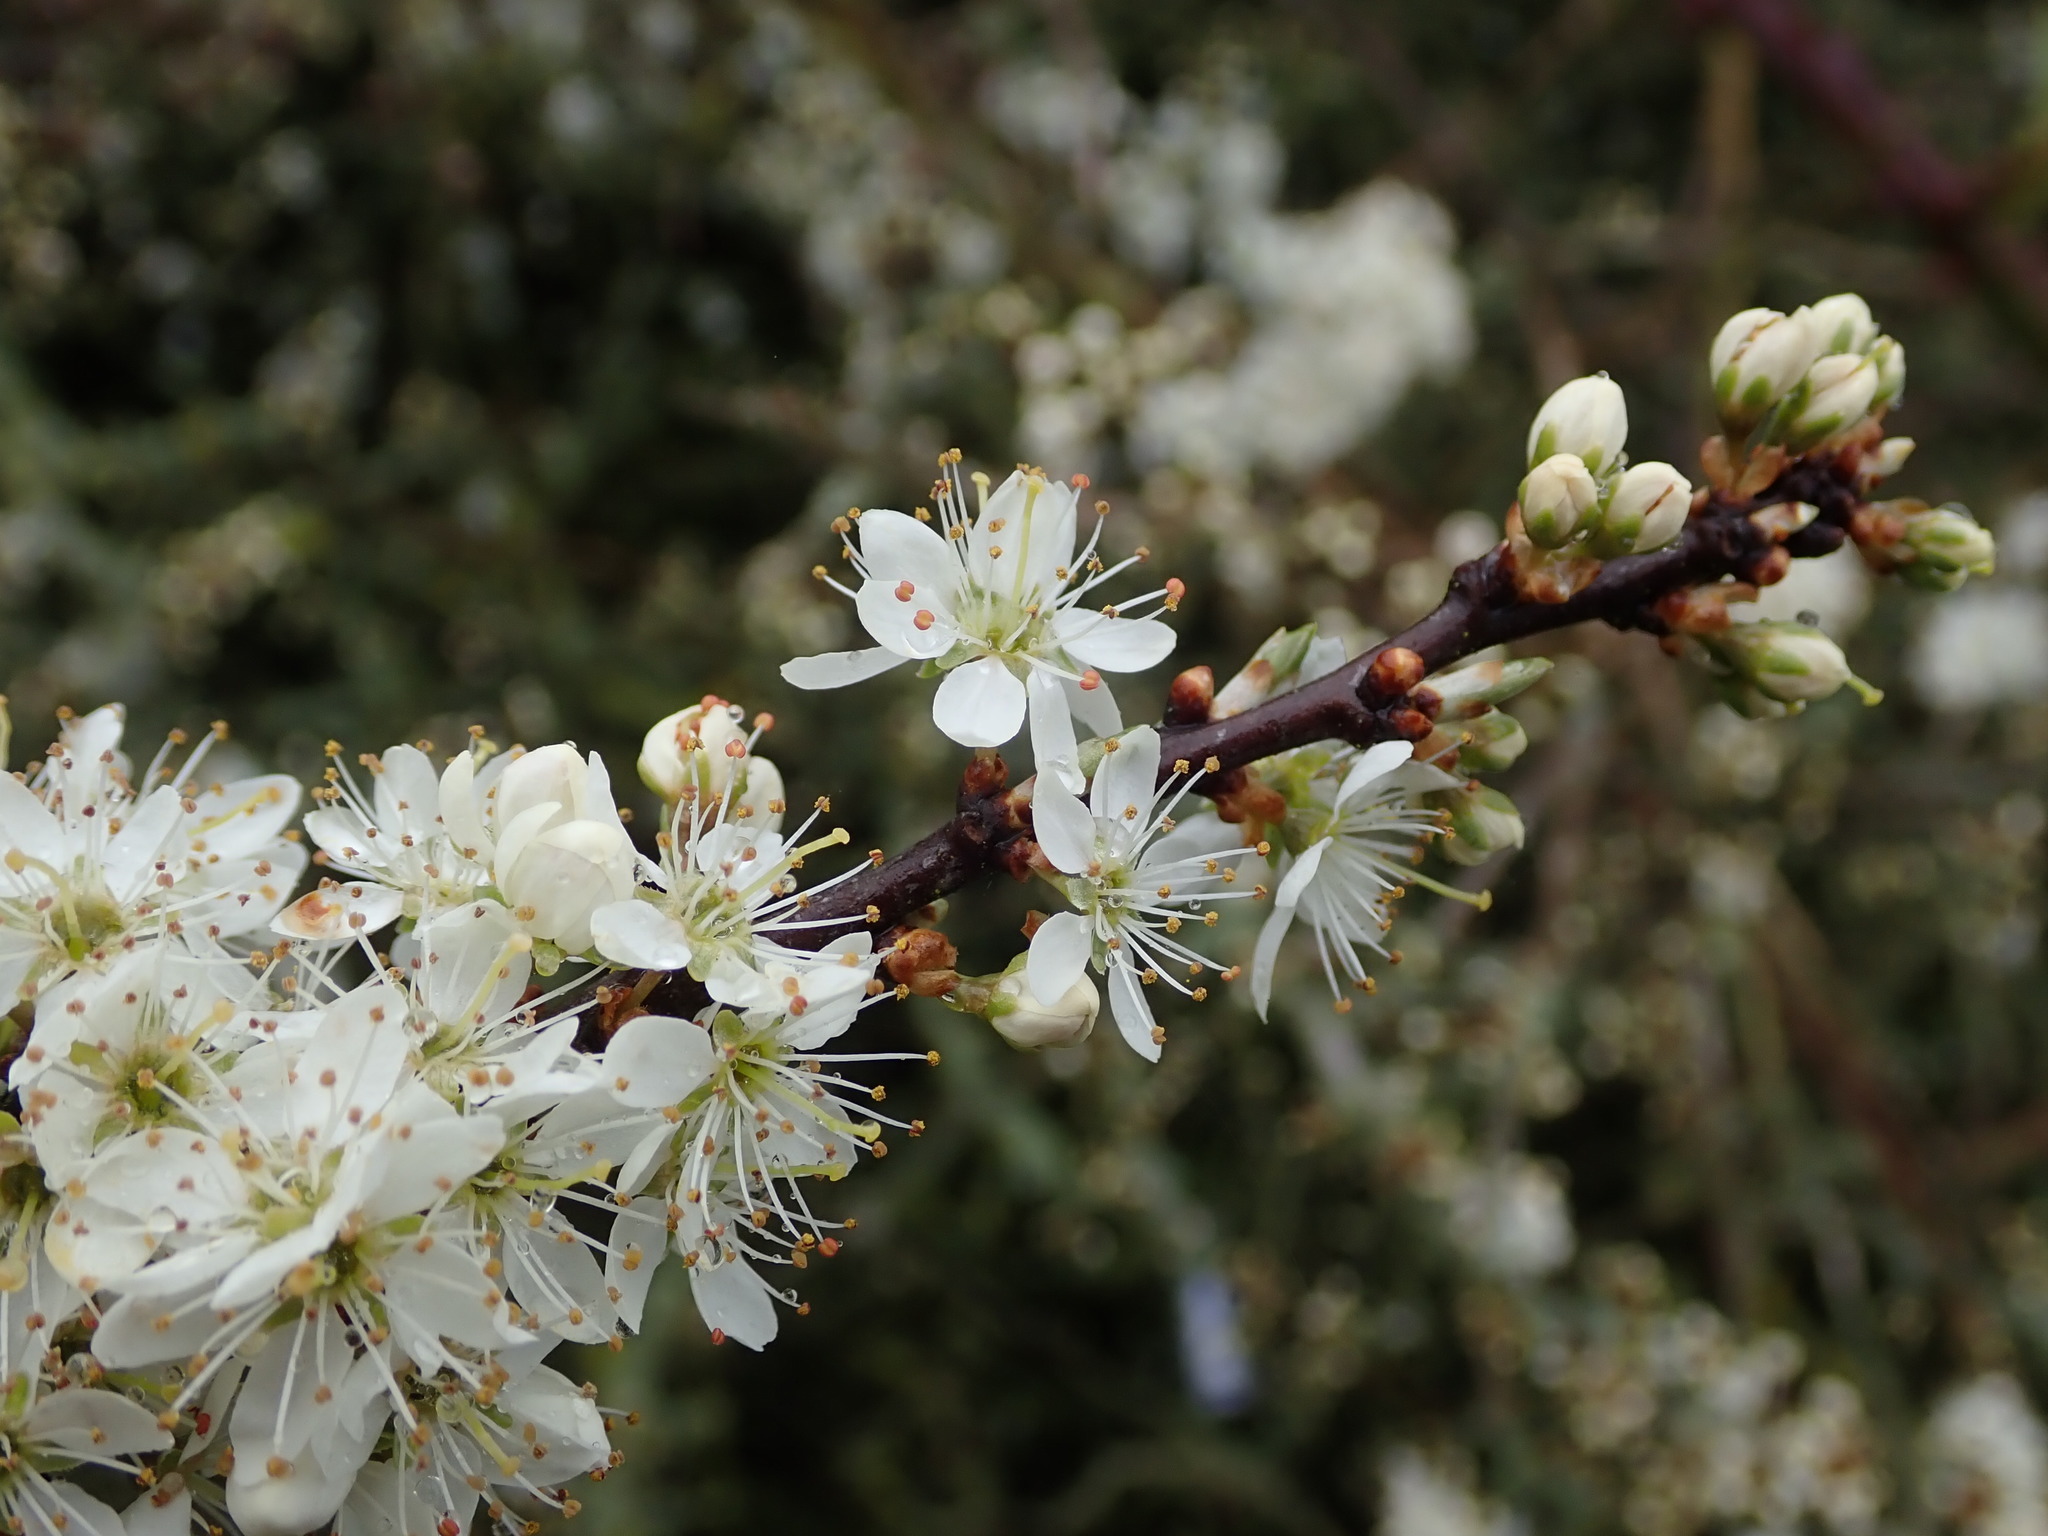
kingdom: Plantae
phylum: Tracheophyta
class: Magnoliopsida
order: Rosales
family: Rosaceae
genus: Prunus
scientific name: Prunus spinosa
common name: Blackthorn
